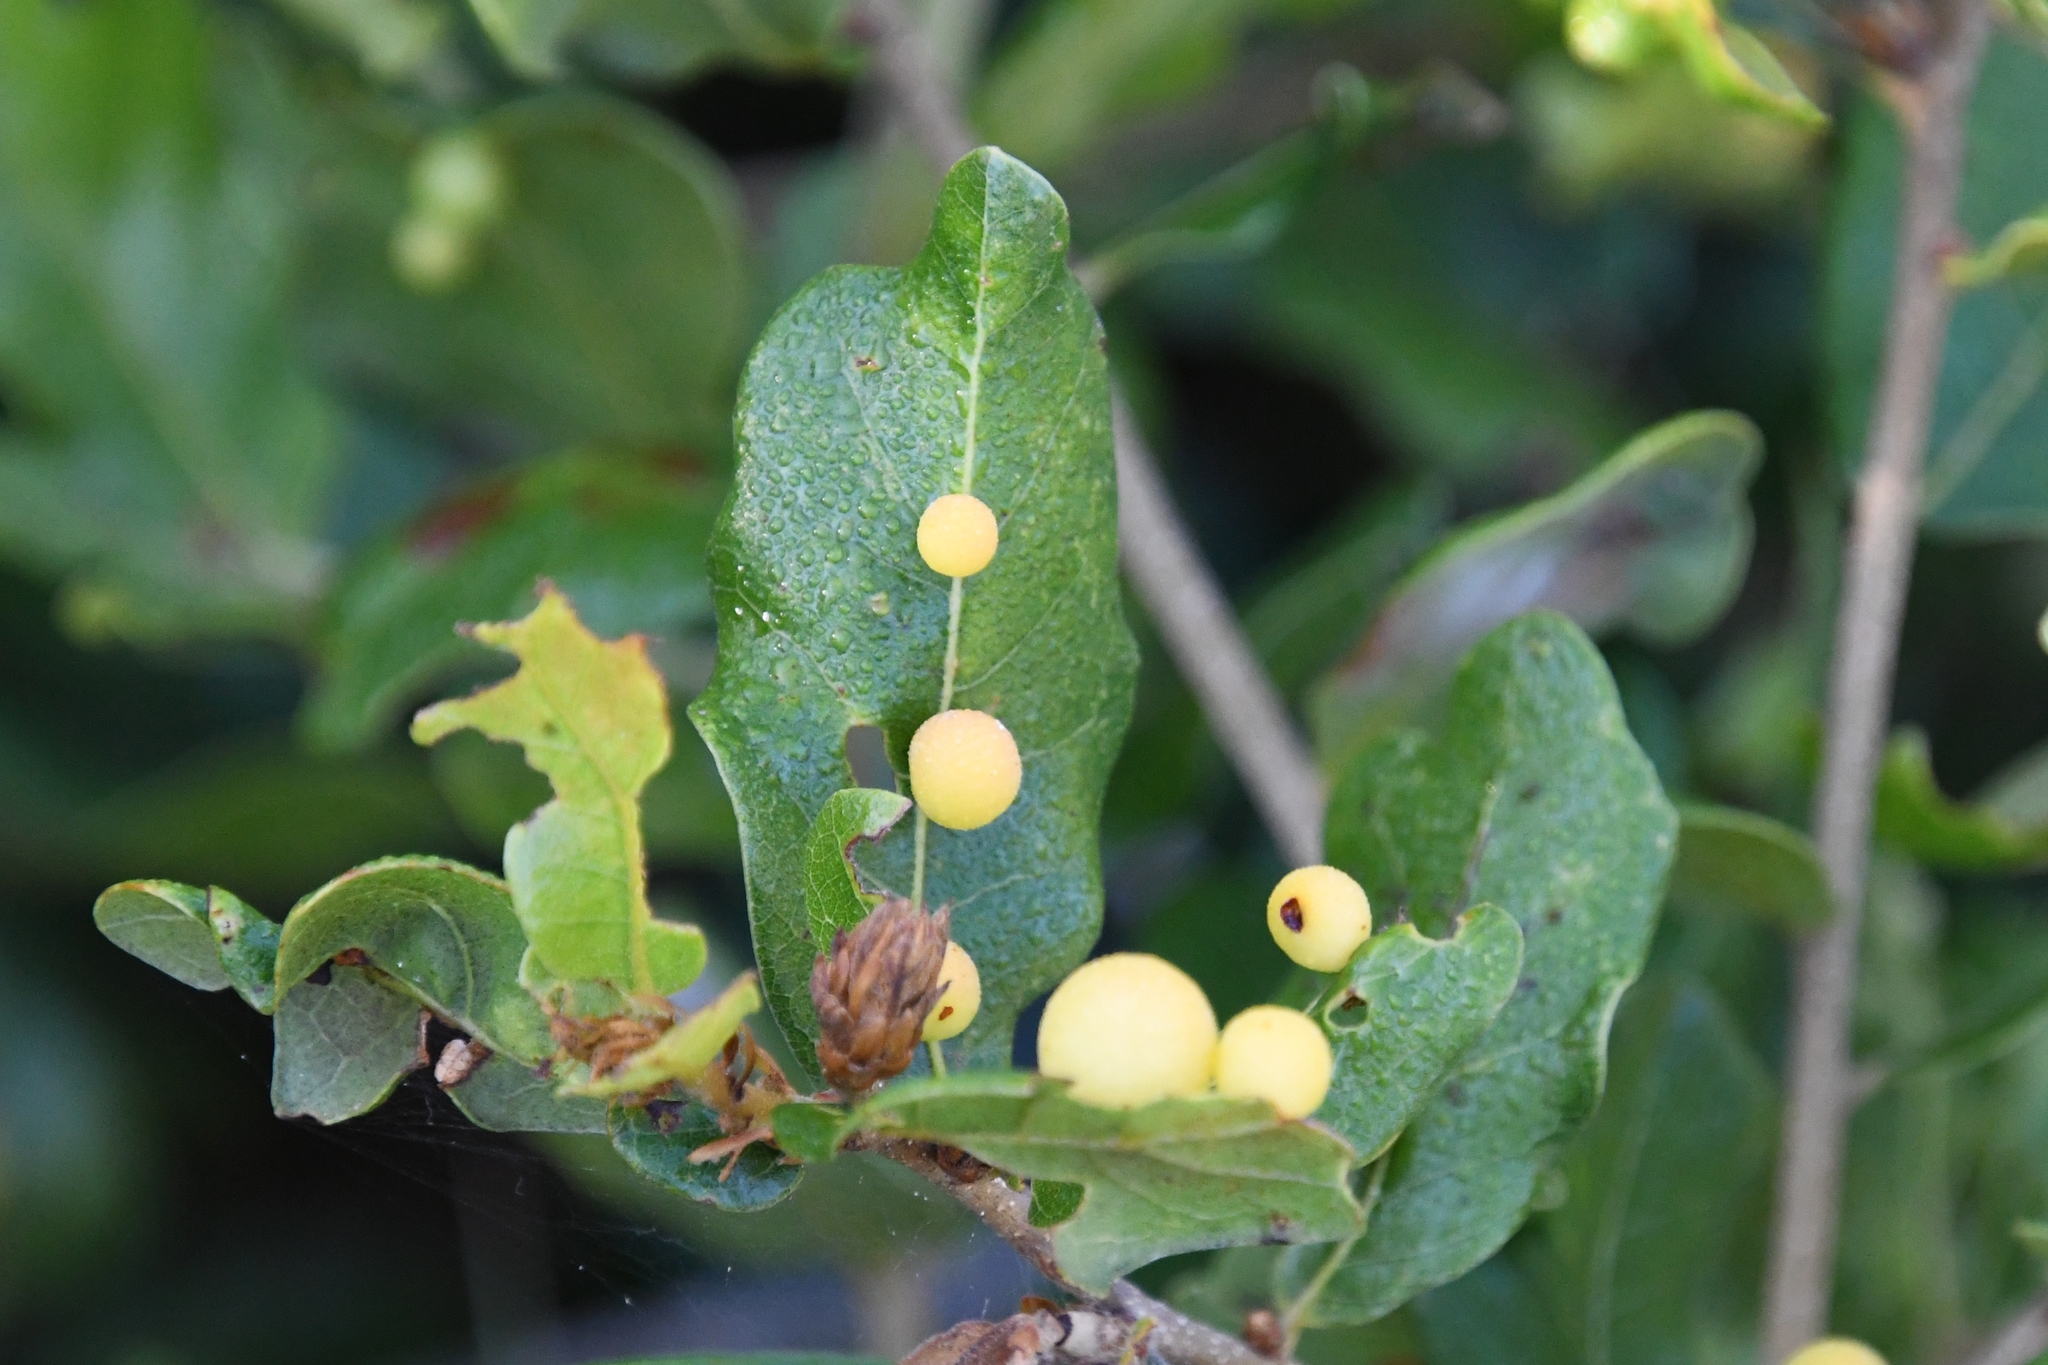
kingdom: Animalia
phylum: Arthropoda
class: Insecta
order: Hymenoptera
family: Cynipidae
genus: Trigonaspis
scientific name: Trigonaspis
